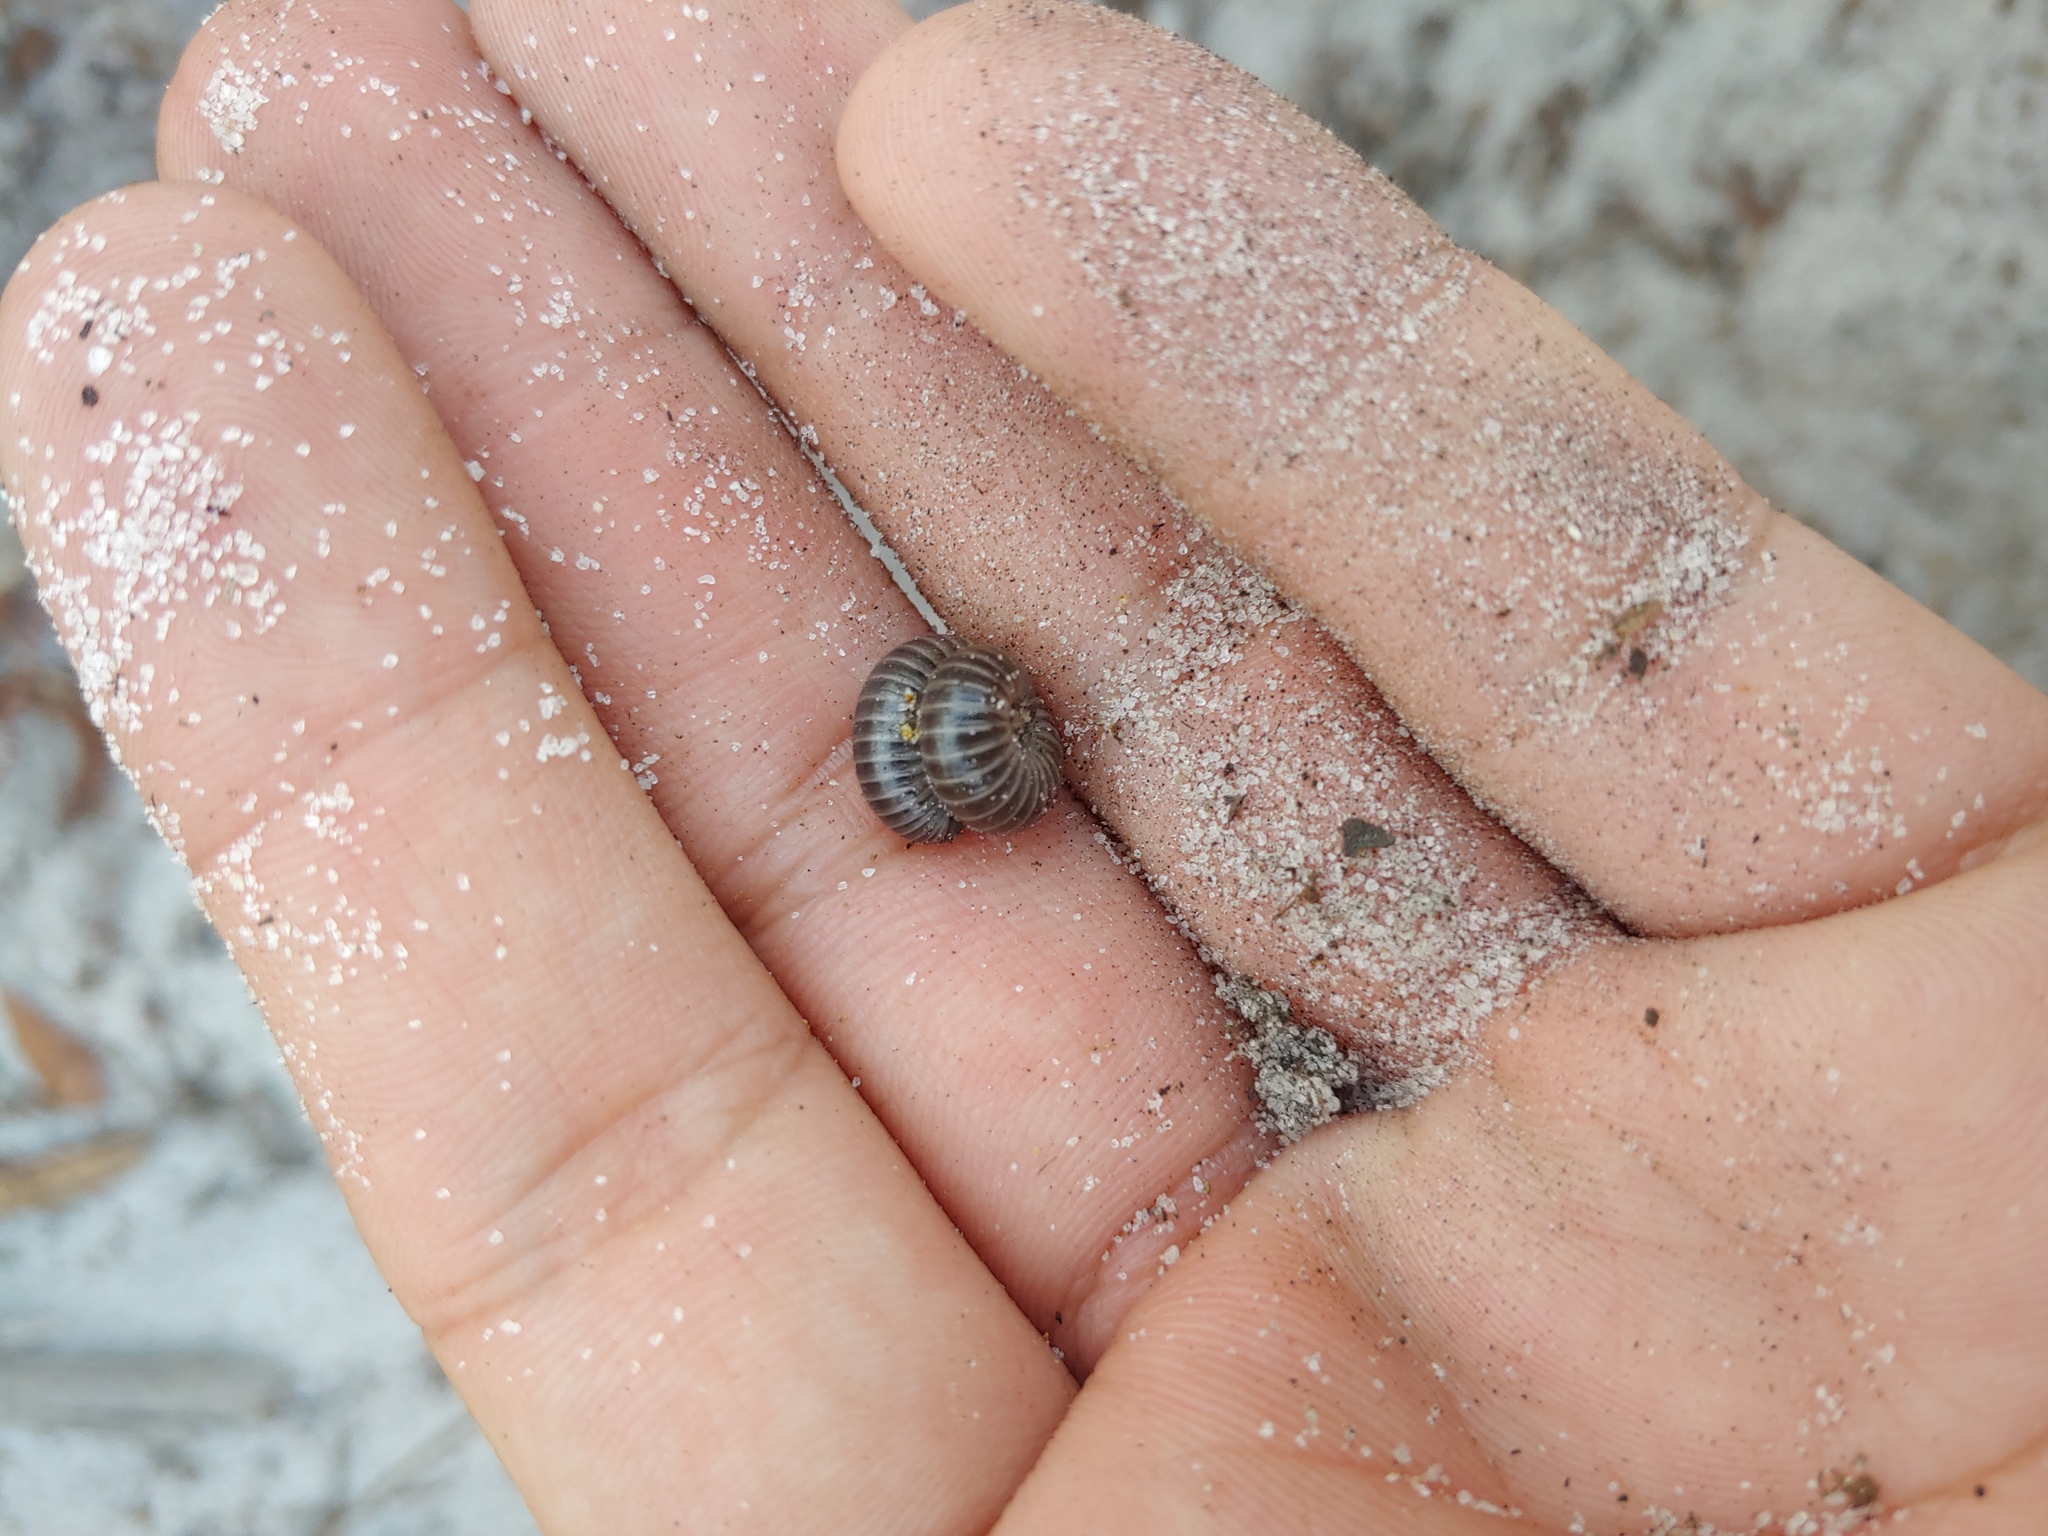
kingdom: Animalia
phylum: Arthropoda
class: Diplopoda
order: Spirobolida
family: Spirobolidae
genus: Floridobolus
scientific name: Floridobolus penneri
